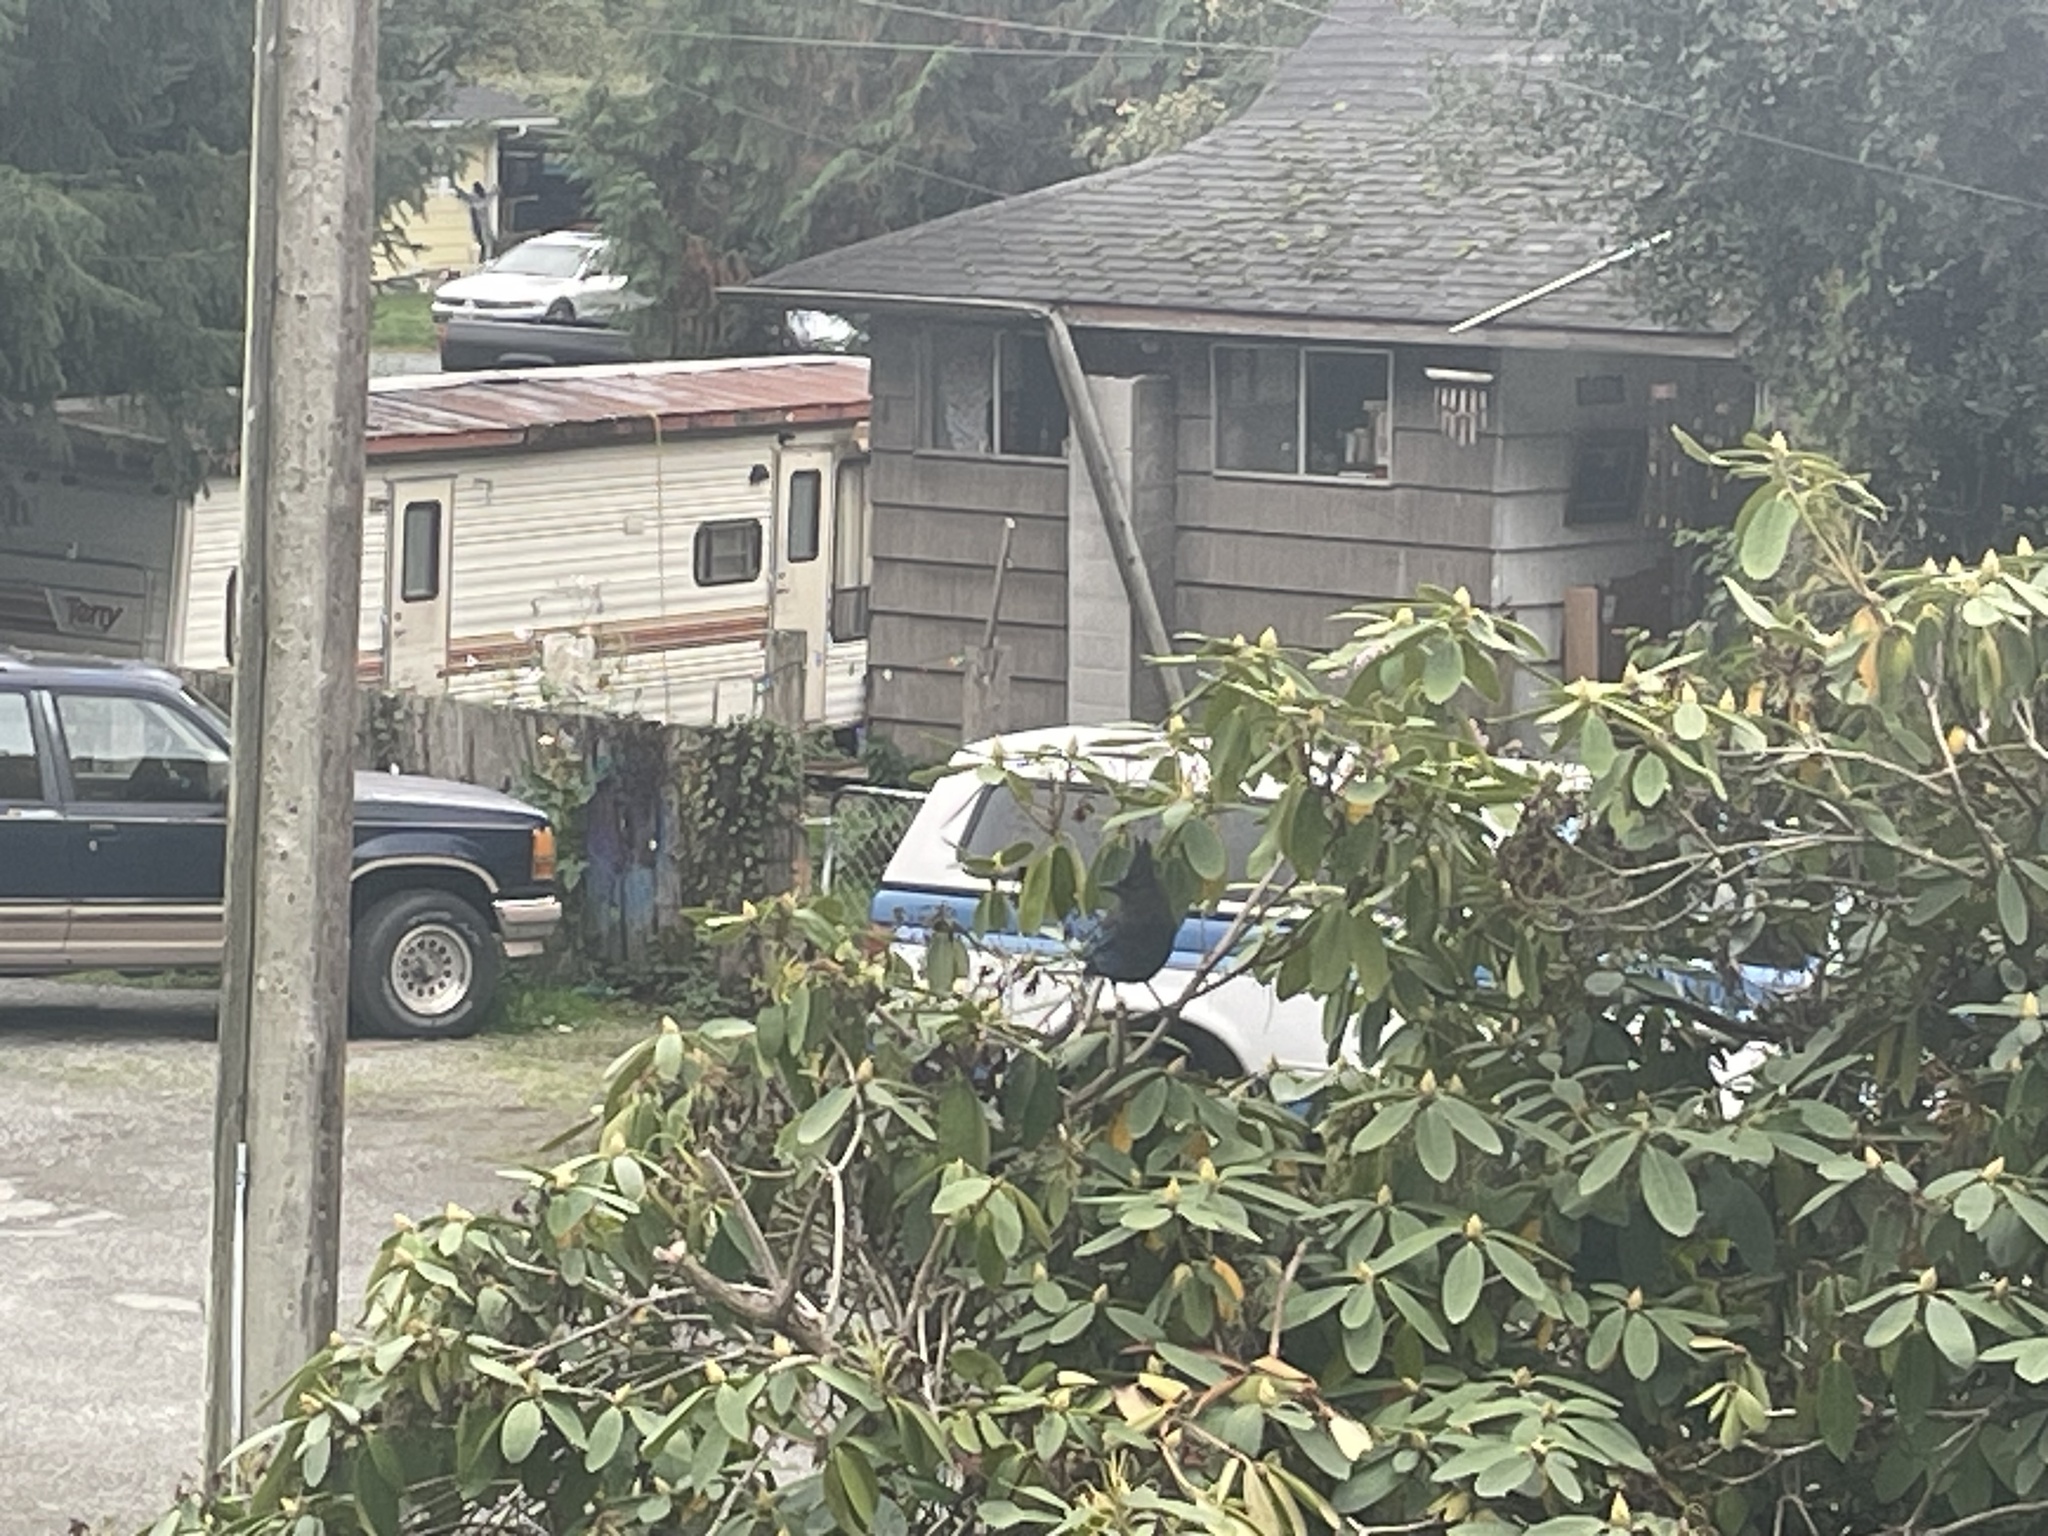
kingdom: Animalia
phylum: Chordata
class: Aves
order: Passeriformes
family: Corvidae
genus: Cyanocitta
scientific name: Cyanocitta stelleri
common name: Steller's jay
